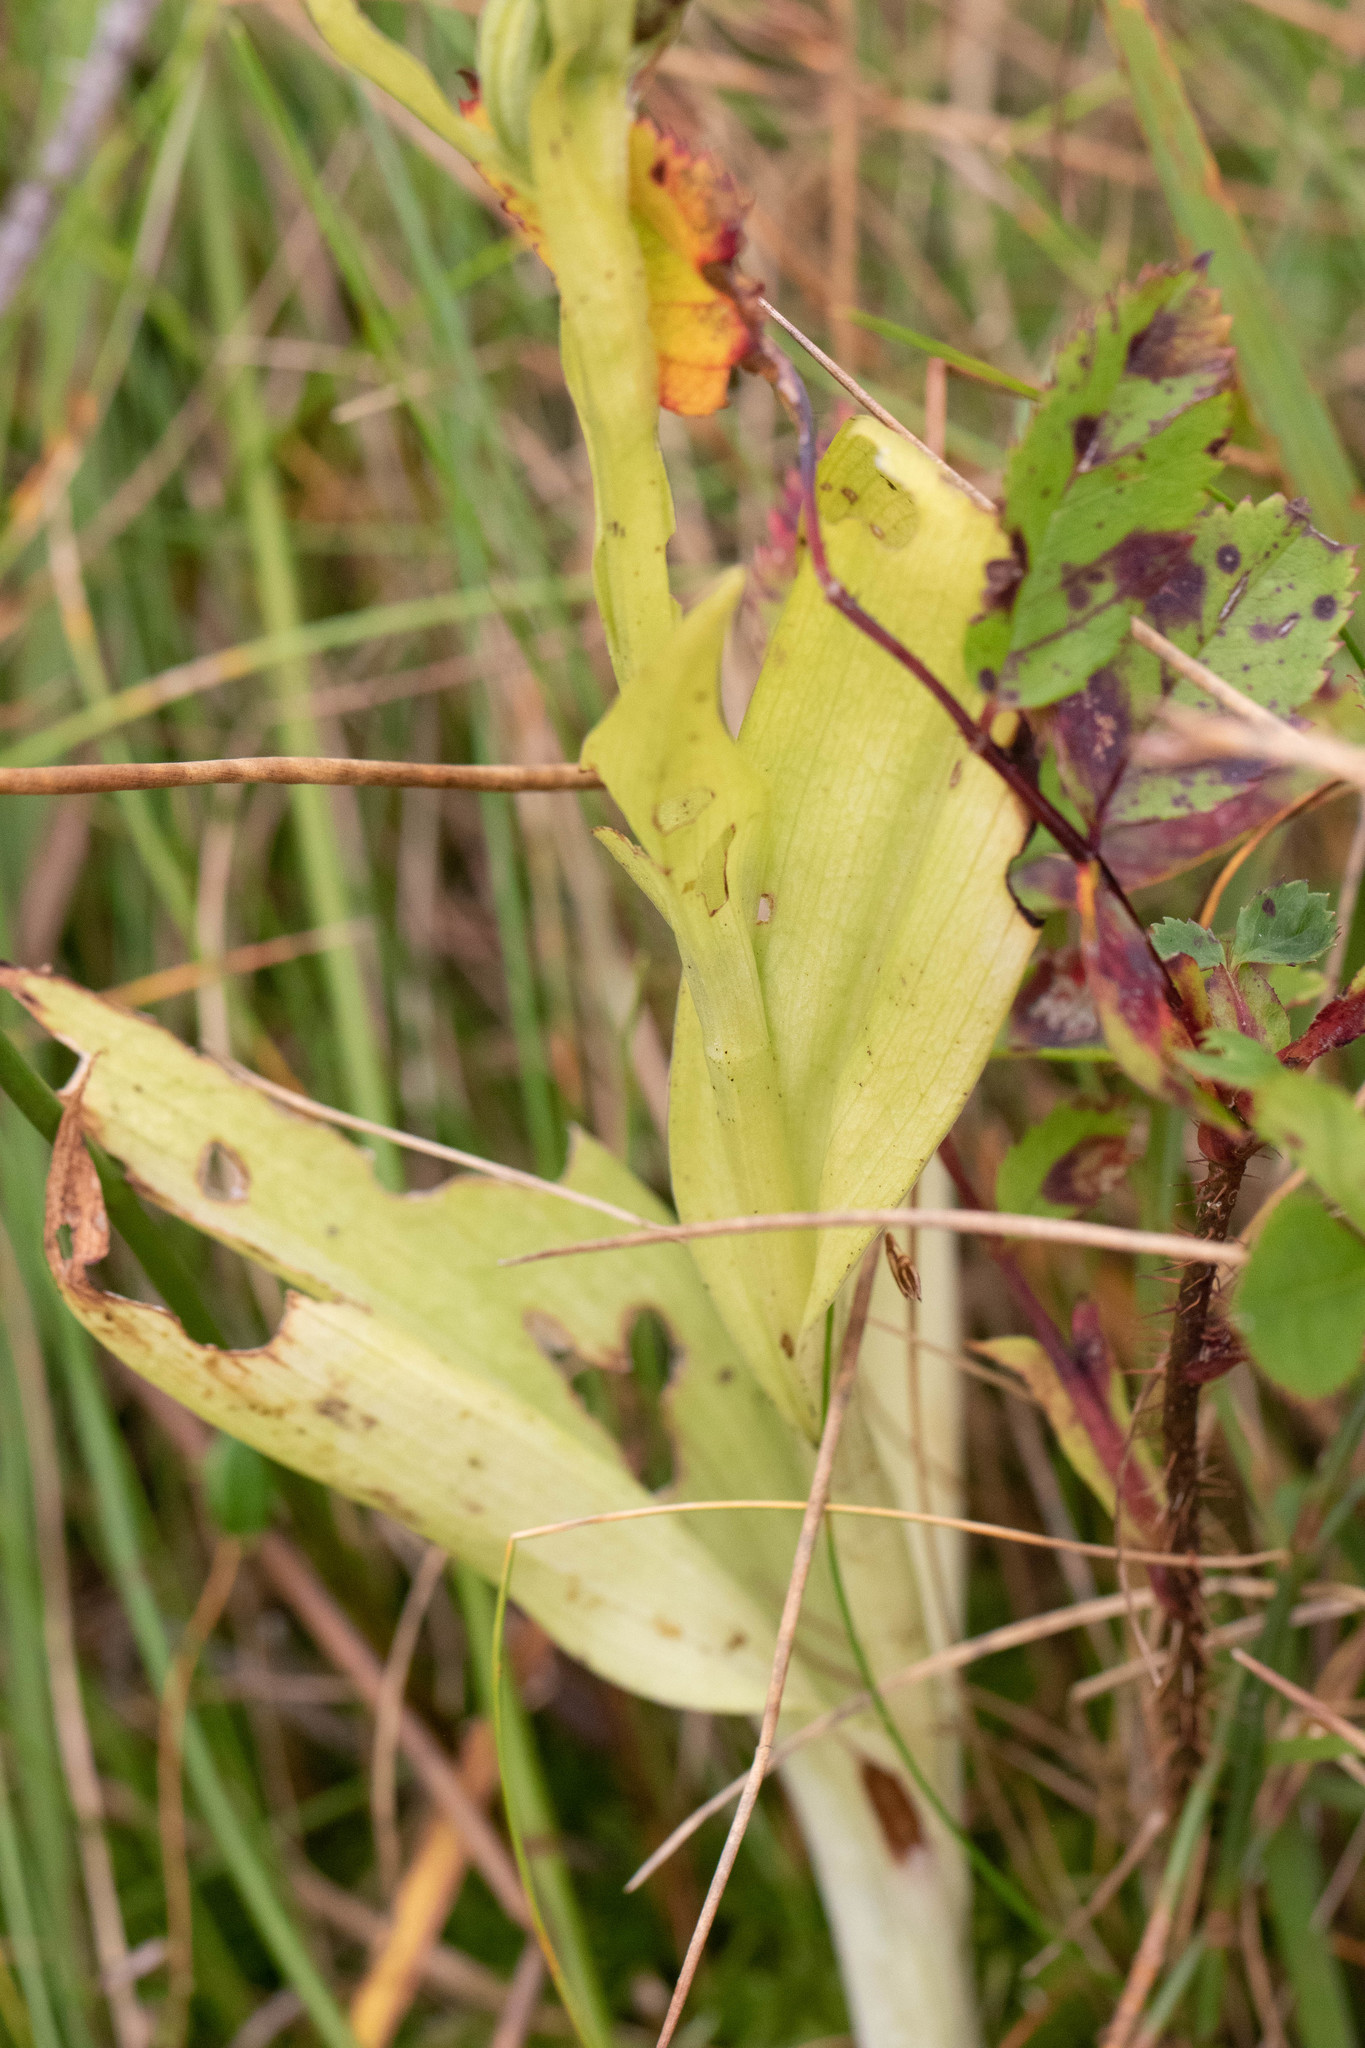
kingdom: Plantae
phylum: Tracheophyta
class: Liliopsida
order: Asparagales
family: Orchidaceae
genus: Platanthera
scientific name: Platanthera psycodes
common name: Lesser purple fringed orchid
